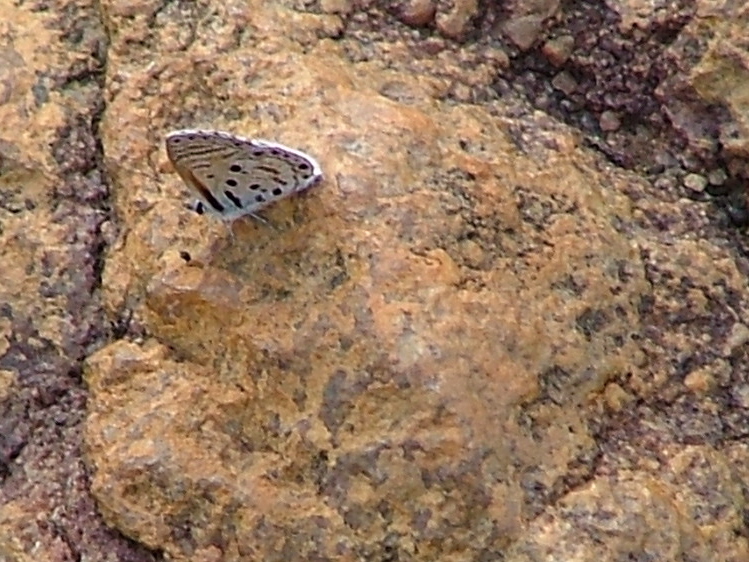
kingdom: Animalia
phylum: Arthropoda
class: Insecta
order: Lepidoptera
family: Lycaenidae
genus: Azanus
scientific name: Azanus jesous
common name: African babul blue
